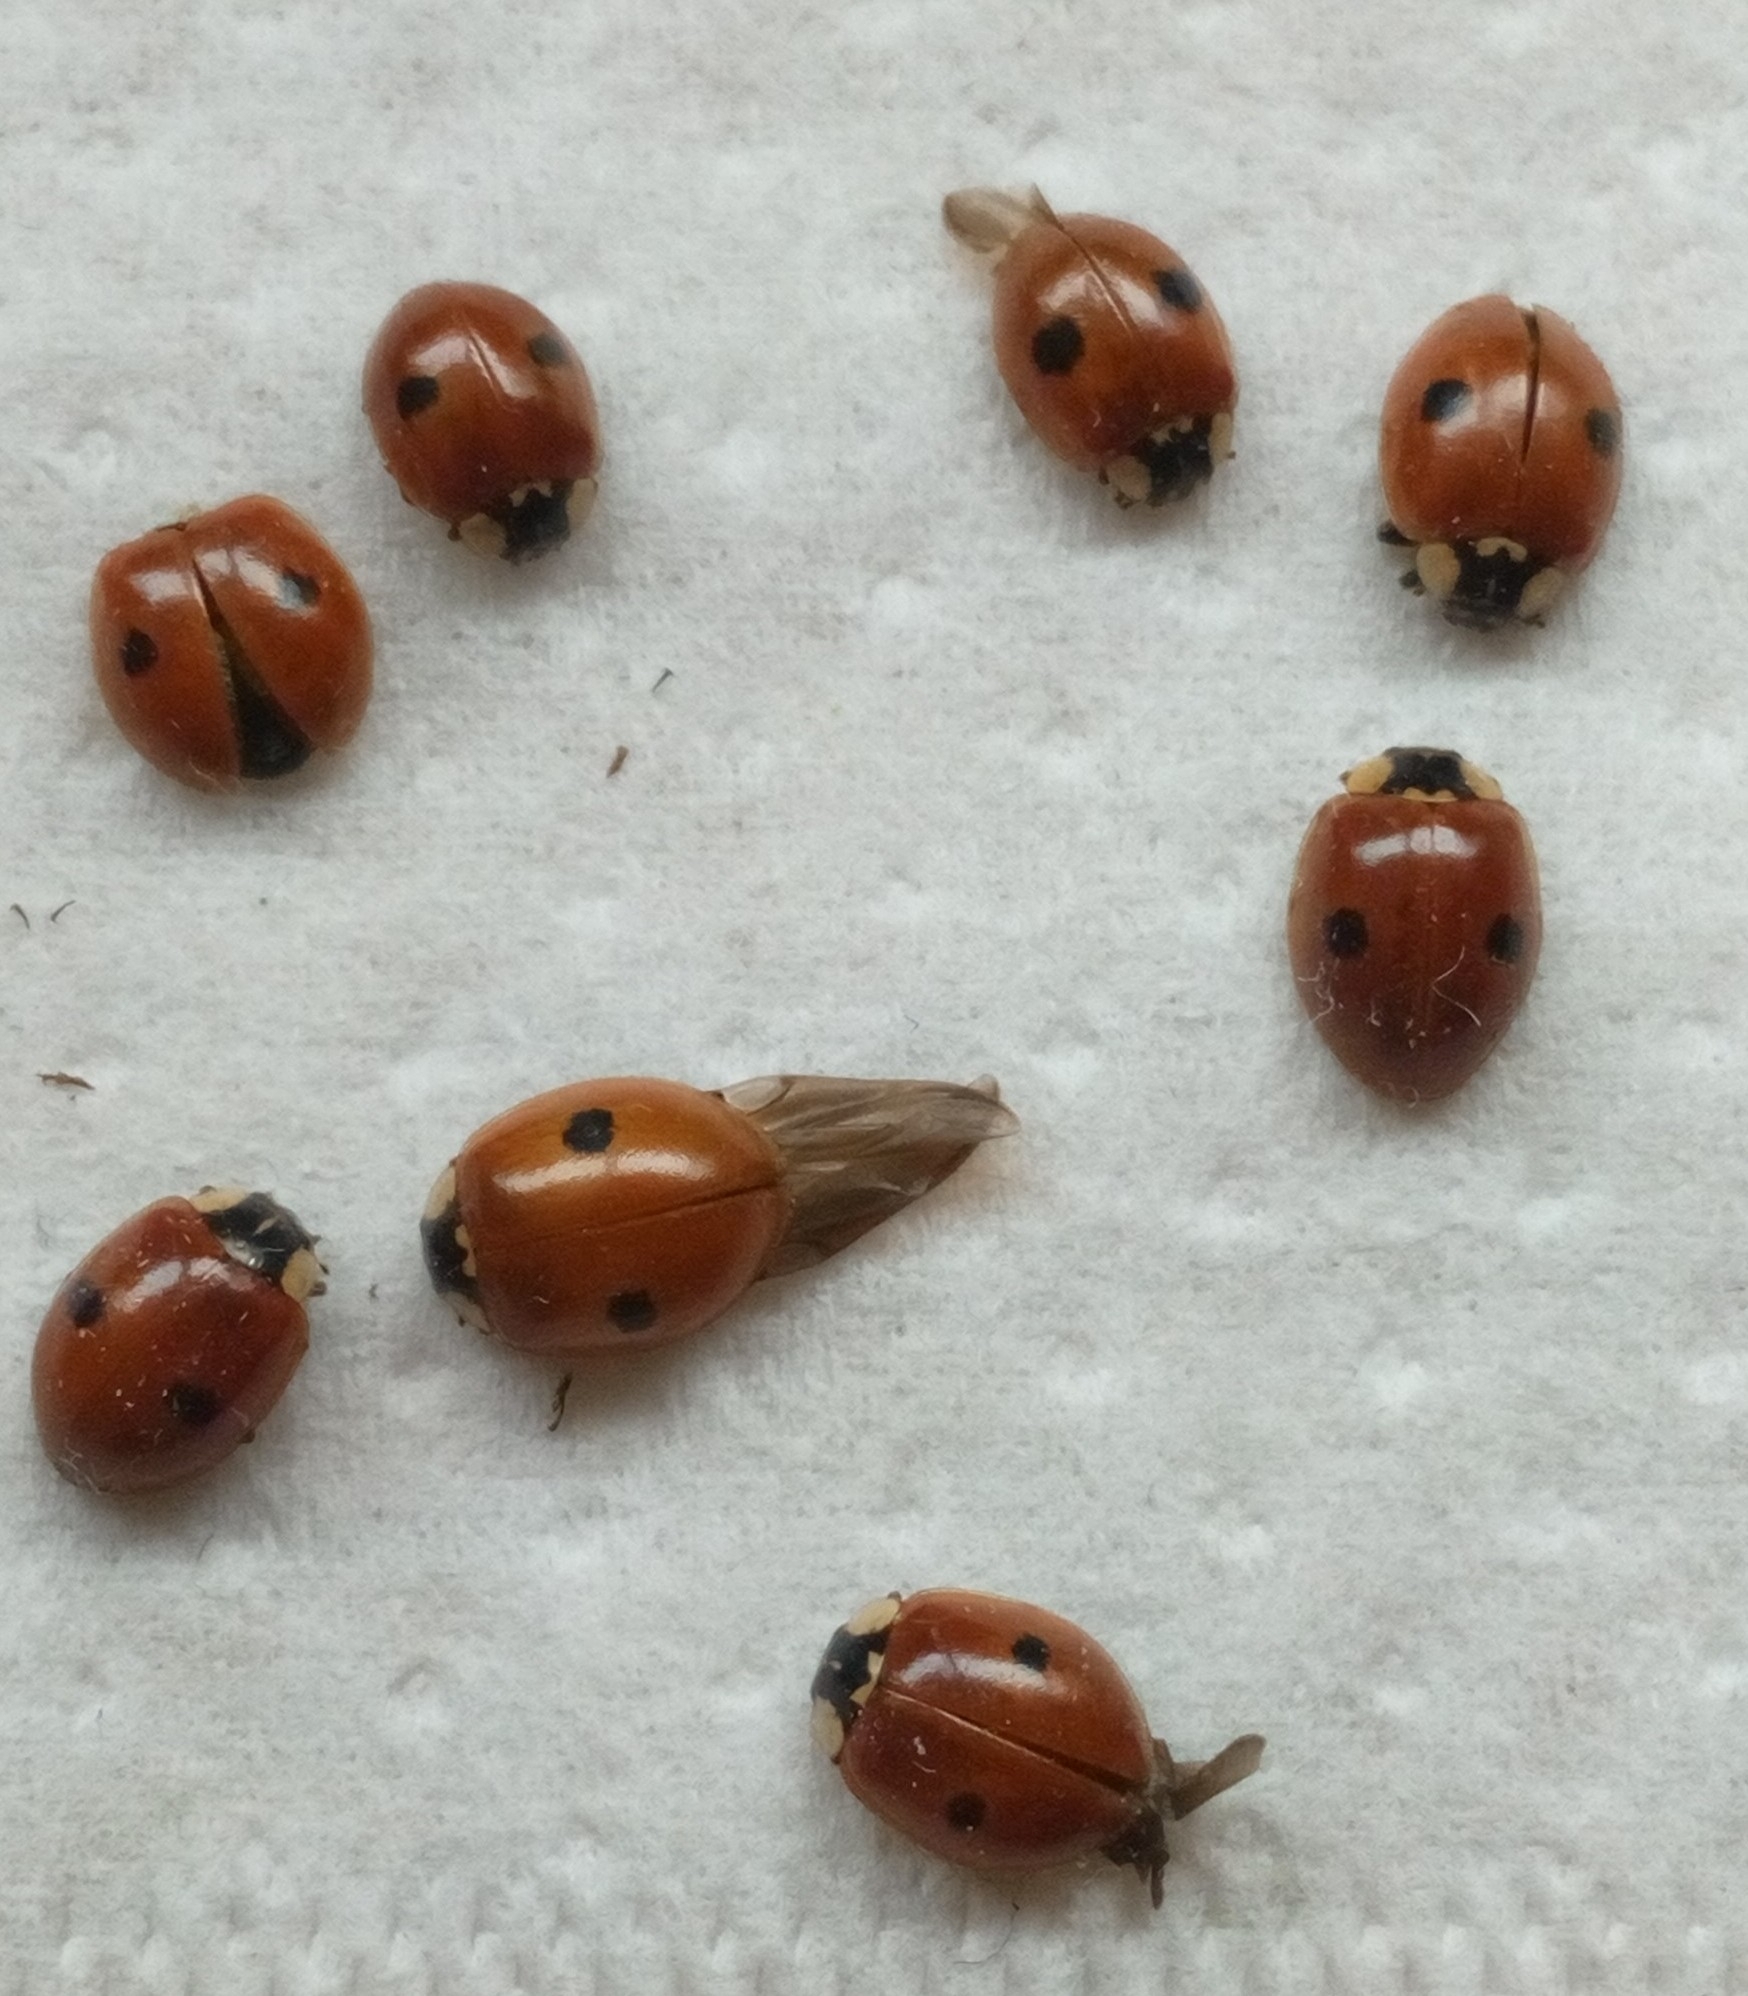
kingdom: Animalia
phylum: Arthropoda
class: Insecta
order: Coleoptera
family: Coccinellidae
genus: Adalia
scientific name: Adalia bipunctata
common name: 2-spot ladybird
